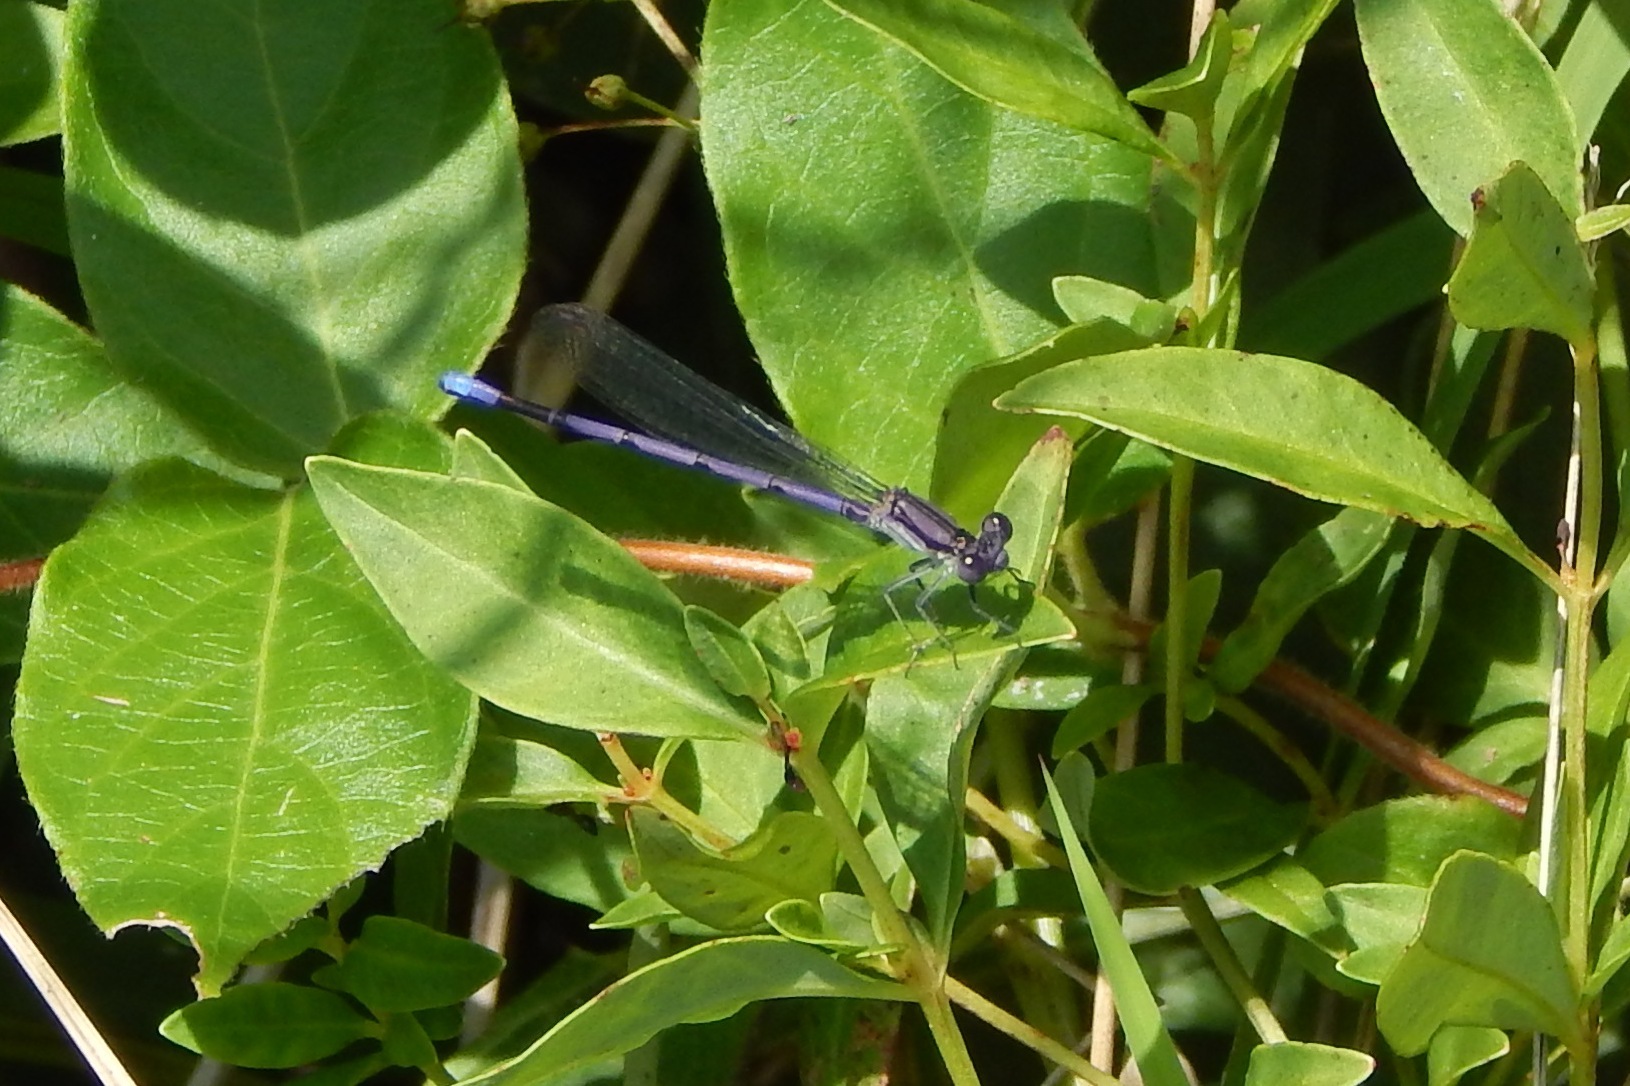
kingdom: Animalia
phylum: Arthropoda
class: Insecta
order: Odonata
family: Coenagrionidae
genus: Argia
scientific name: Argia fumipennis
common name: Variable dancer
